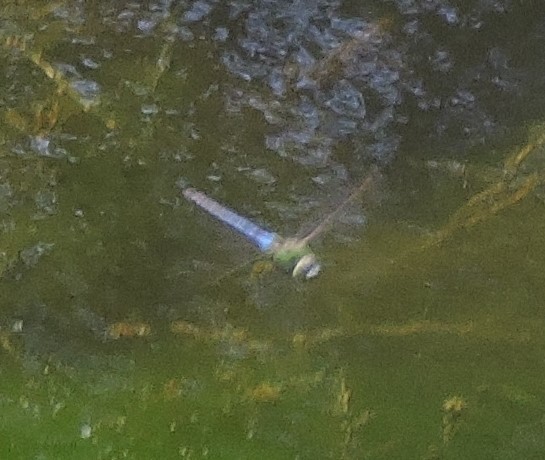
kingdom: Animalia
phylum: Arthropoda
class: Insecta
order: Odonata
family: Aeshnidae
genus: Anax
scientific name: Anax junius
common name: Common green darner
